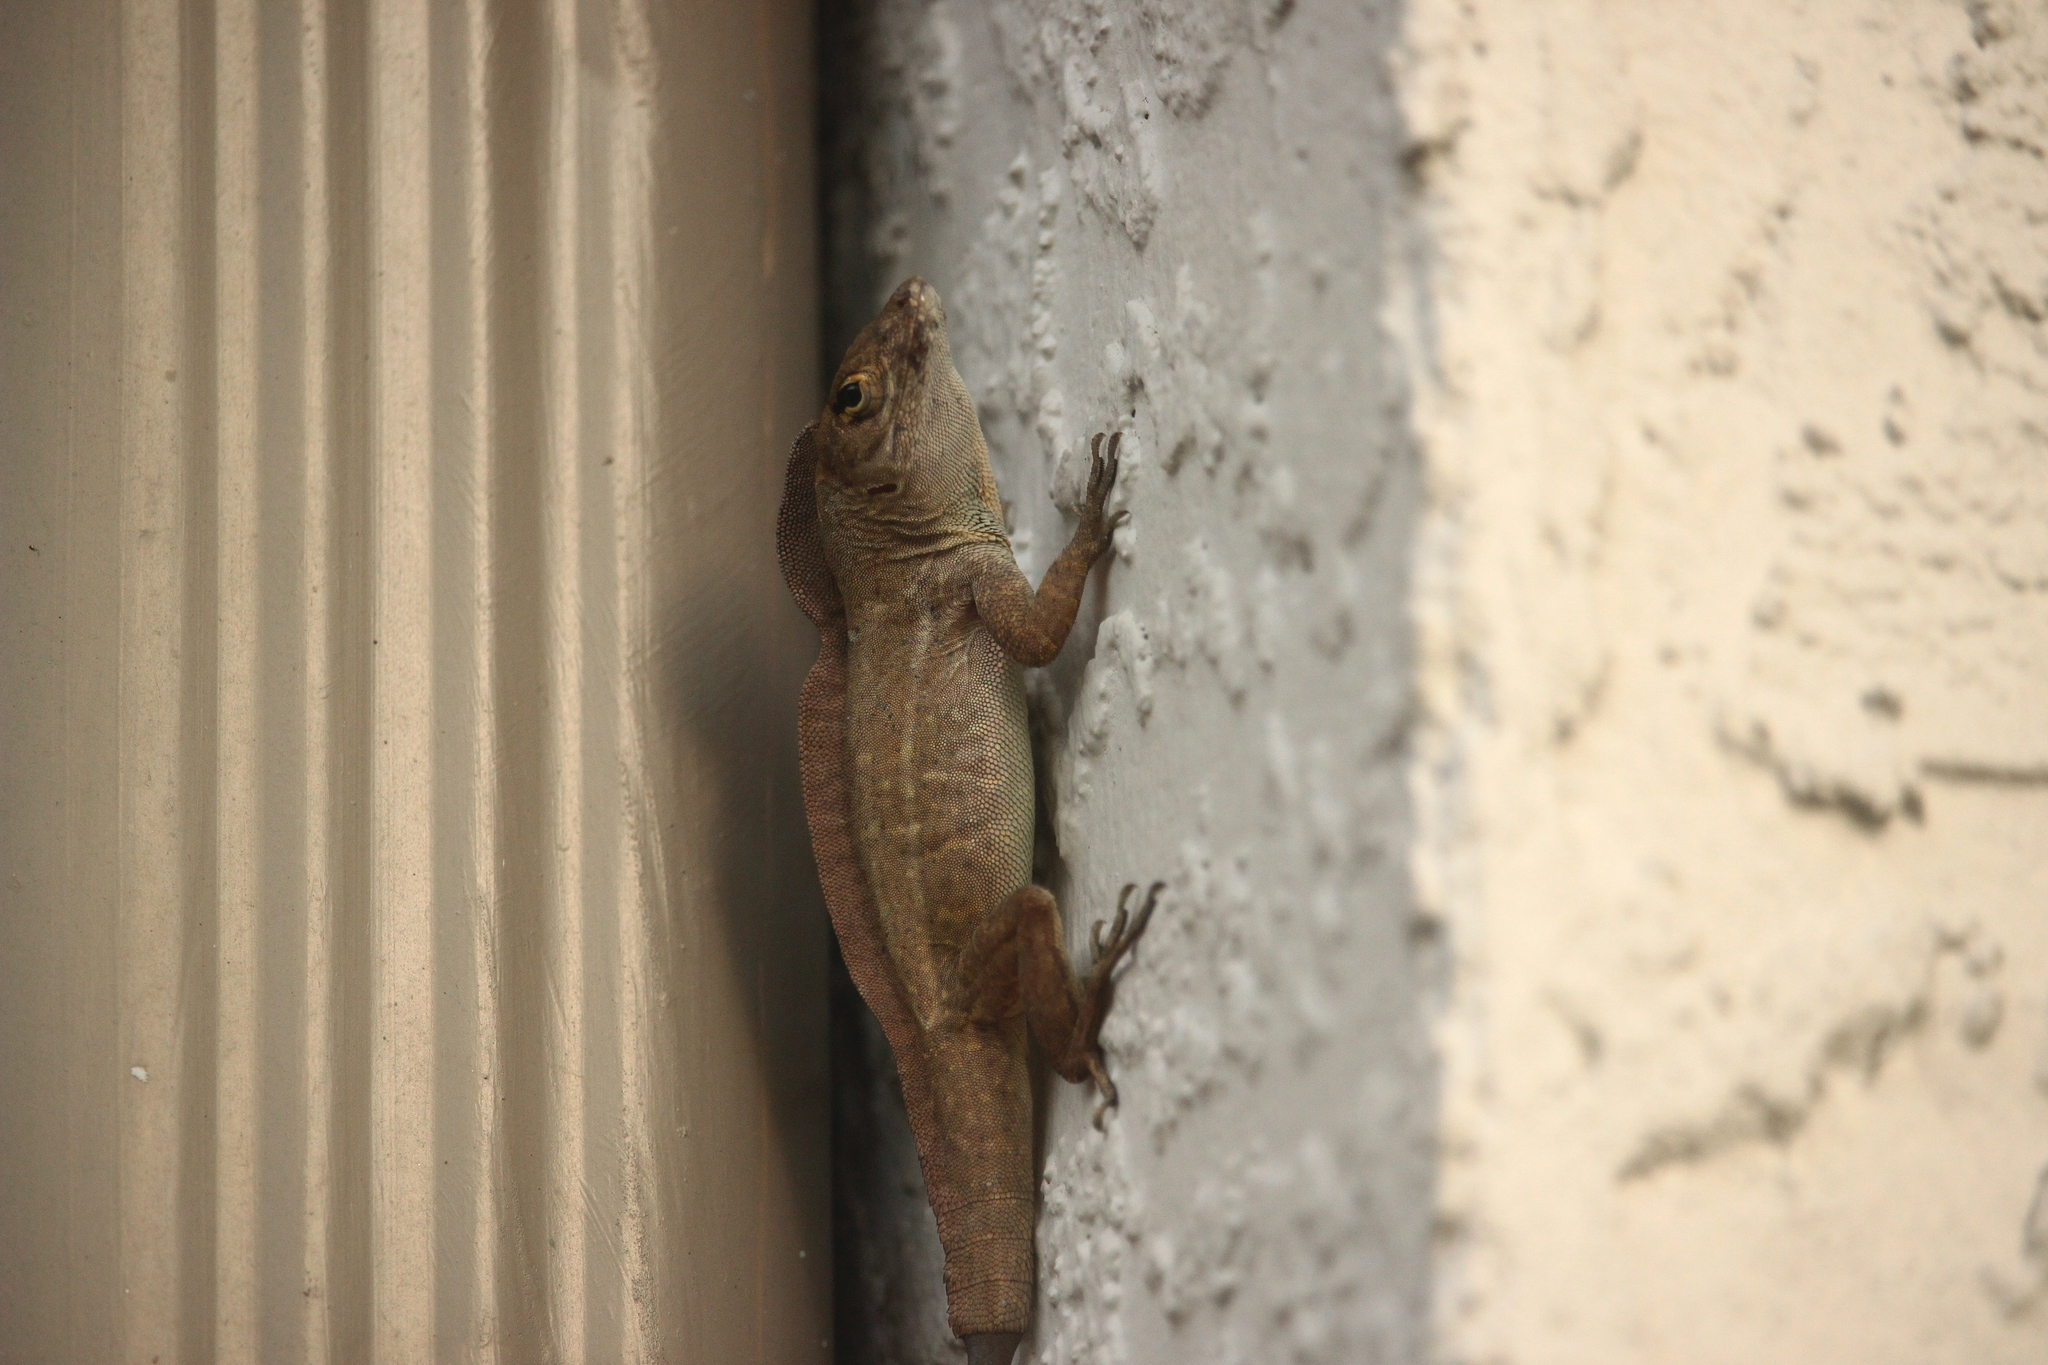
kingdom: Animalia
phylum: Chordata
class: Squamata
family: Dactyloidae
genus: Anolis
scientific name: Anolis sagrei
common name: Brown anole
